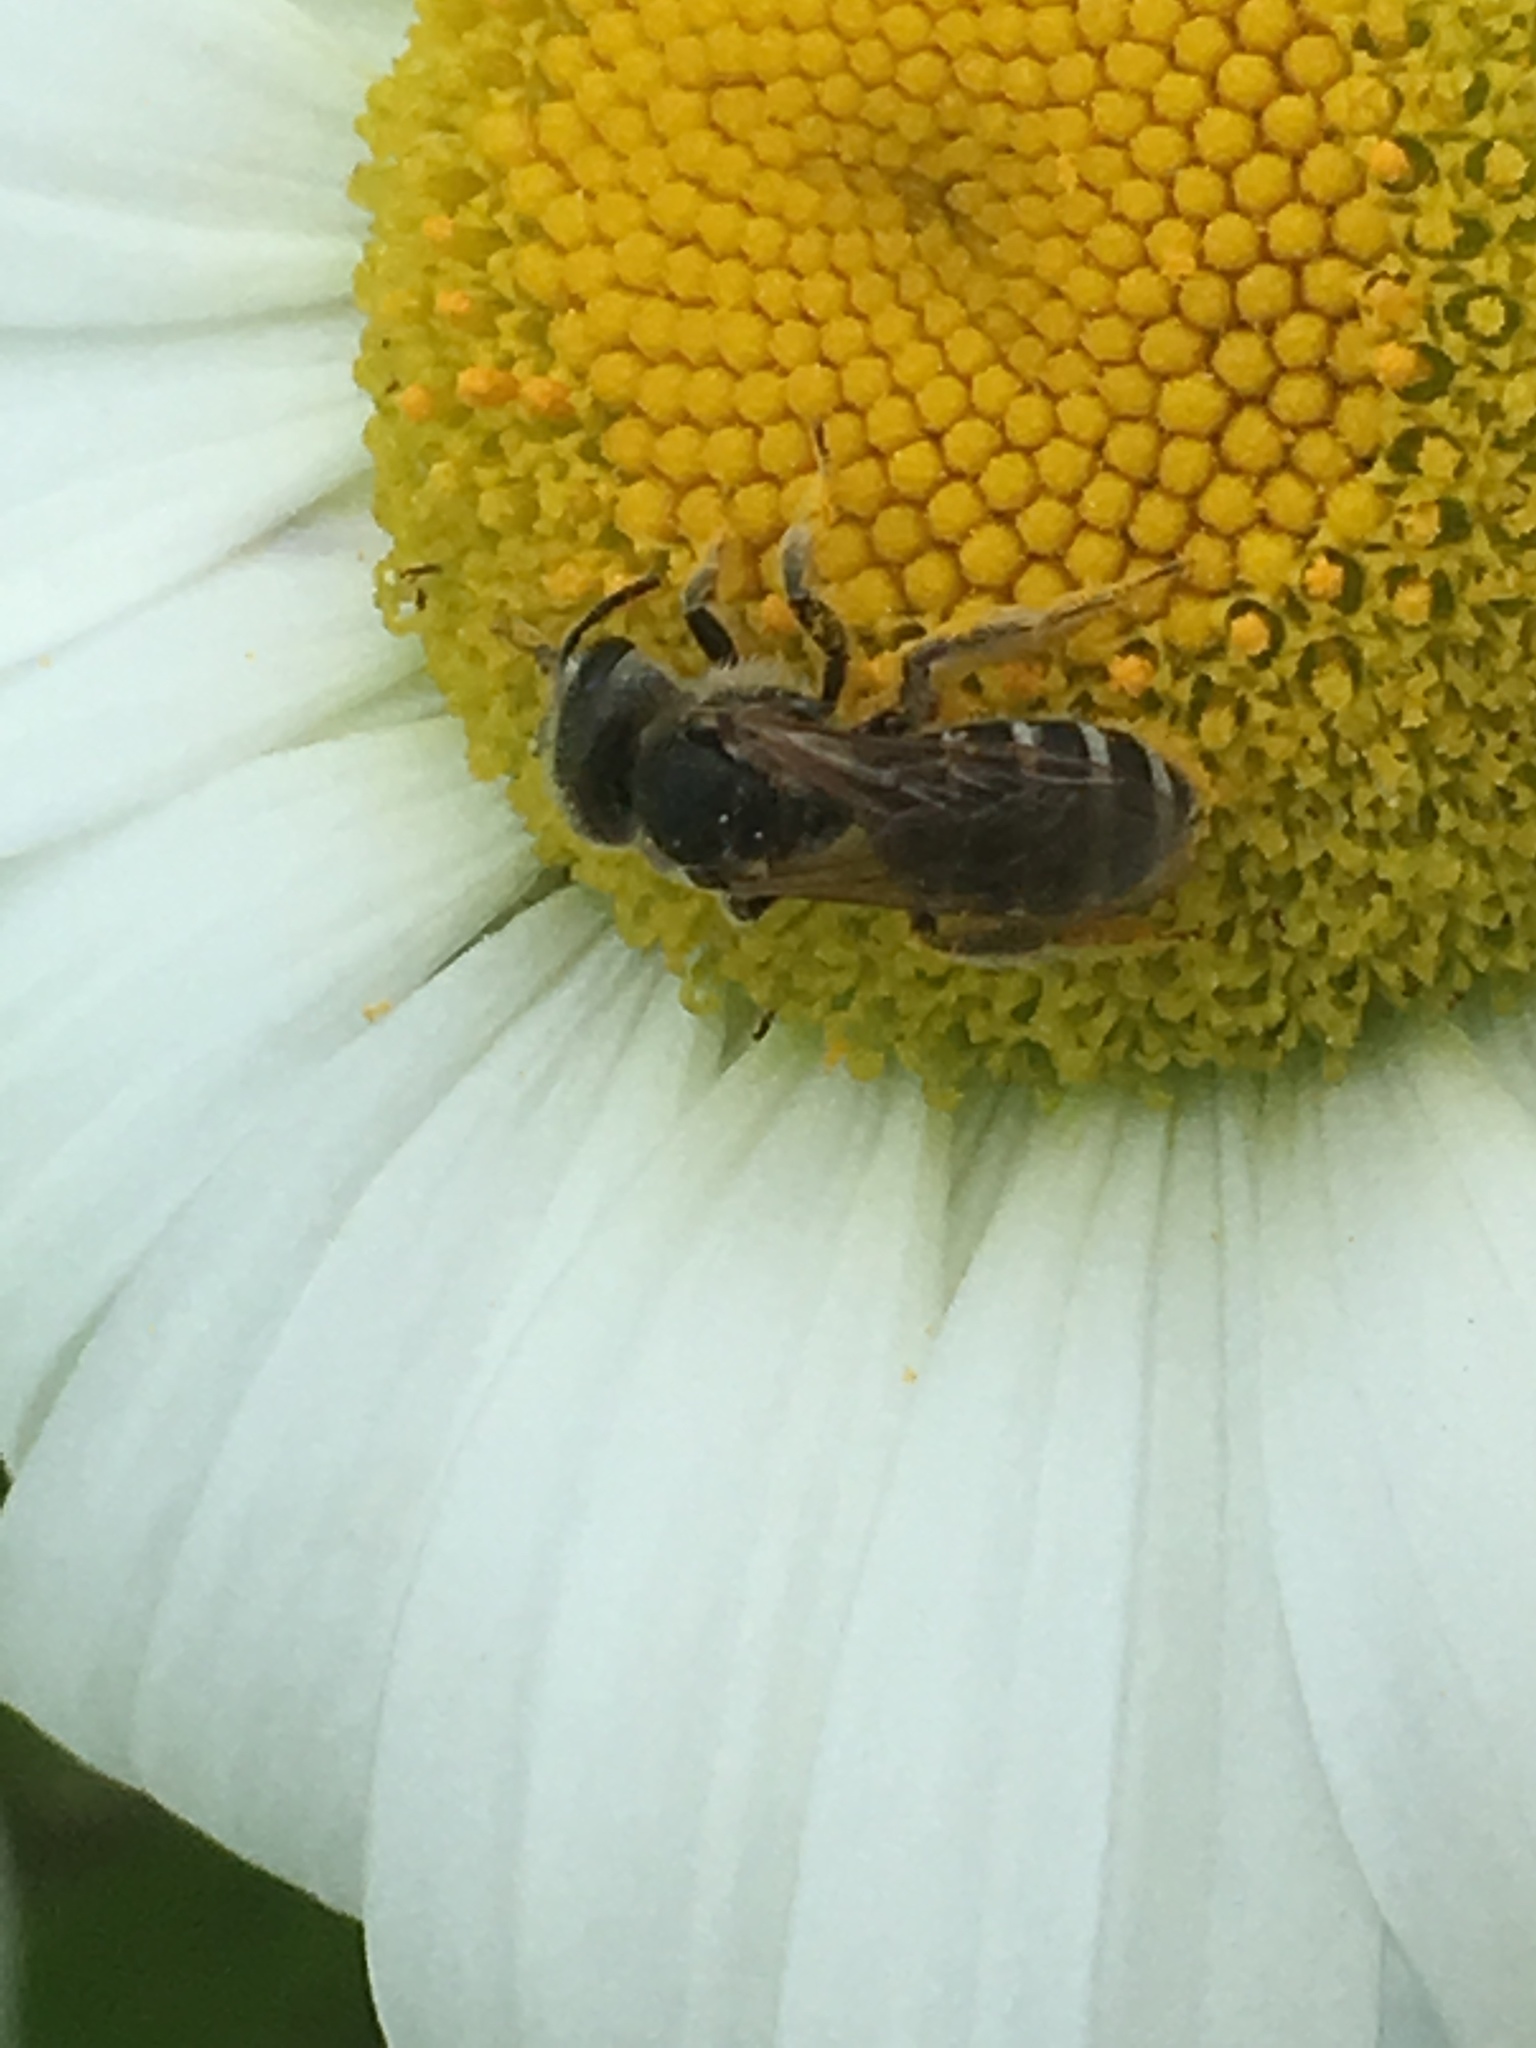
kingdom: Animalia
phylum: Arthropoda
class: Insecta
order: Hymenoptera
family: Halictidae
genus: Halictus
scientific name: Halictus ligatus
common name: Ligated furrow bee
